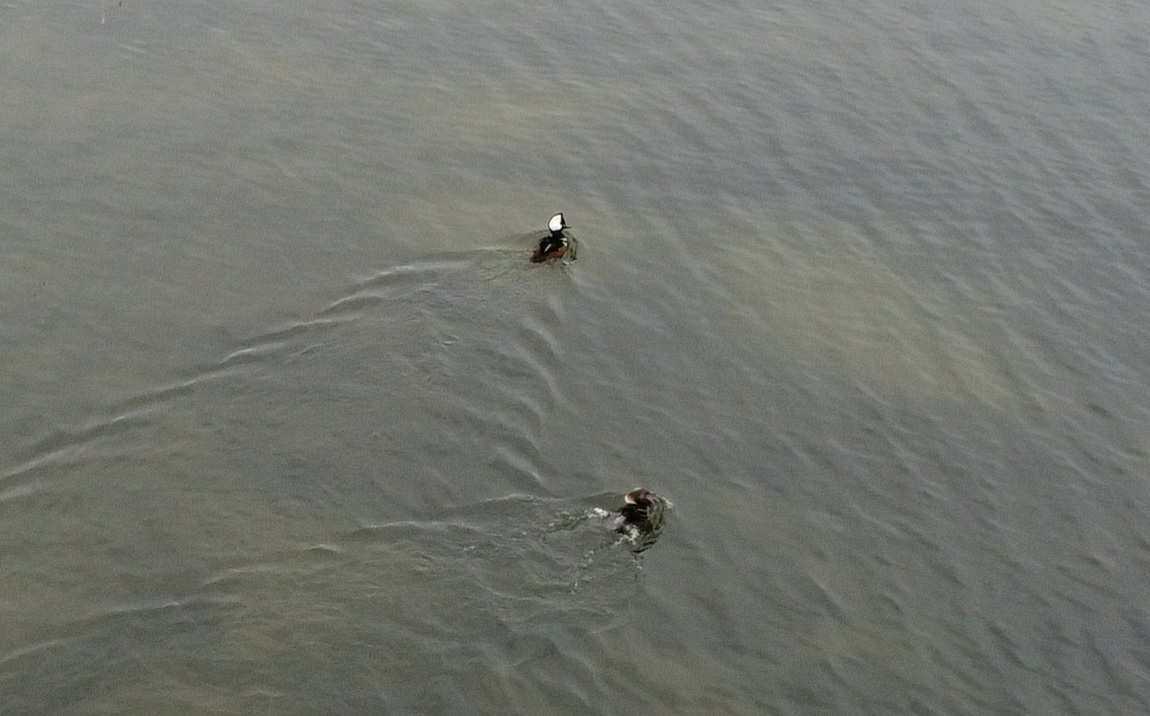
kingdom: Animalia
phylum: Chordata
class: Aves
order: Anseriformes
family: Anatidae
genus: Lophodytes
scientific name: Lophodytes cucullatus
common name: Hooded merganser
